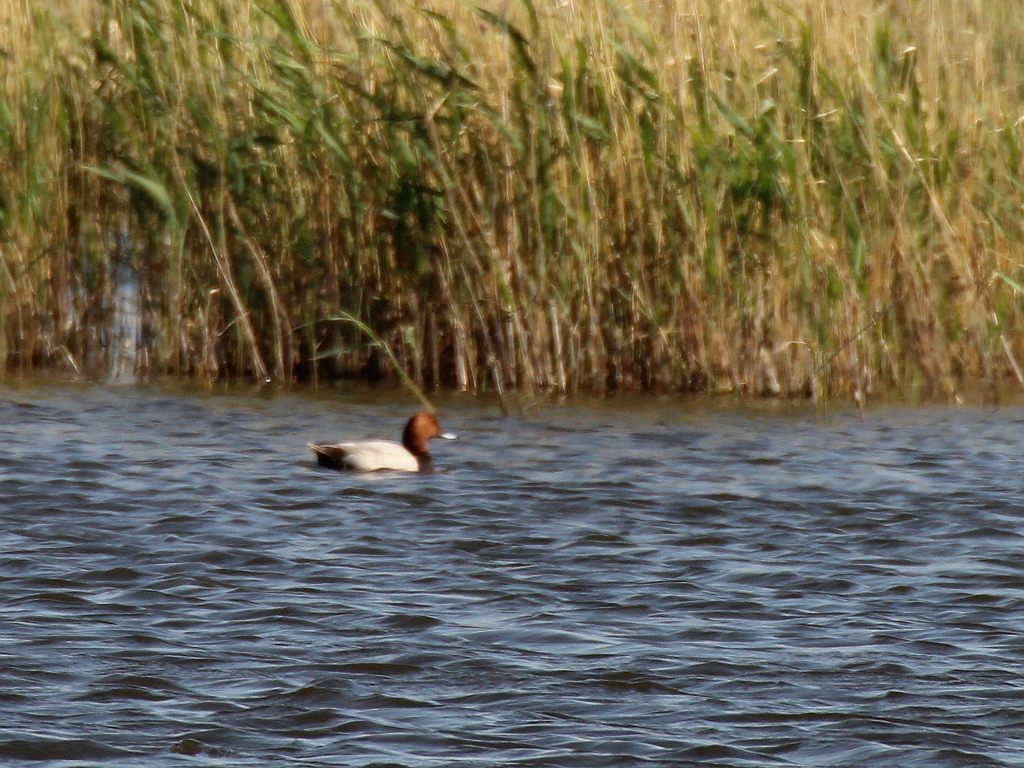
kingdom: Animalia
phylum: Chordata
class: Aves
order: Anseriformes
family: Anatidae
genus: Aythya
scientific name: Aythya ferina
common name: Common pochard
